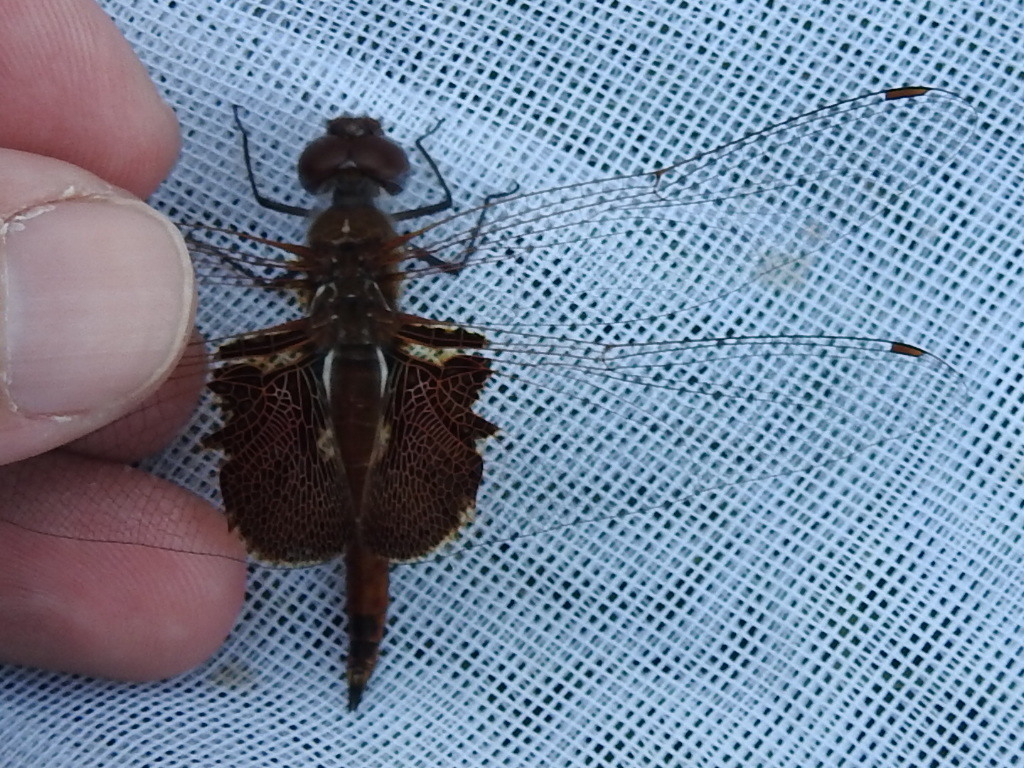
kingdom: Animalia
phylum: Arthropoda
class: Insecta
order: Odonata
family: Libellulidae
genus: Tramea
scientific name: Tramea onusta
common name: Red saddlebags
